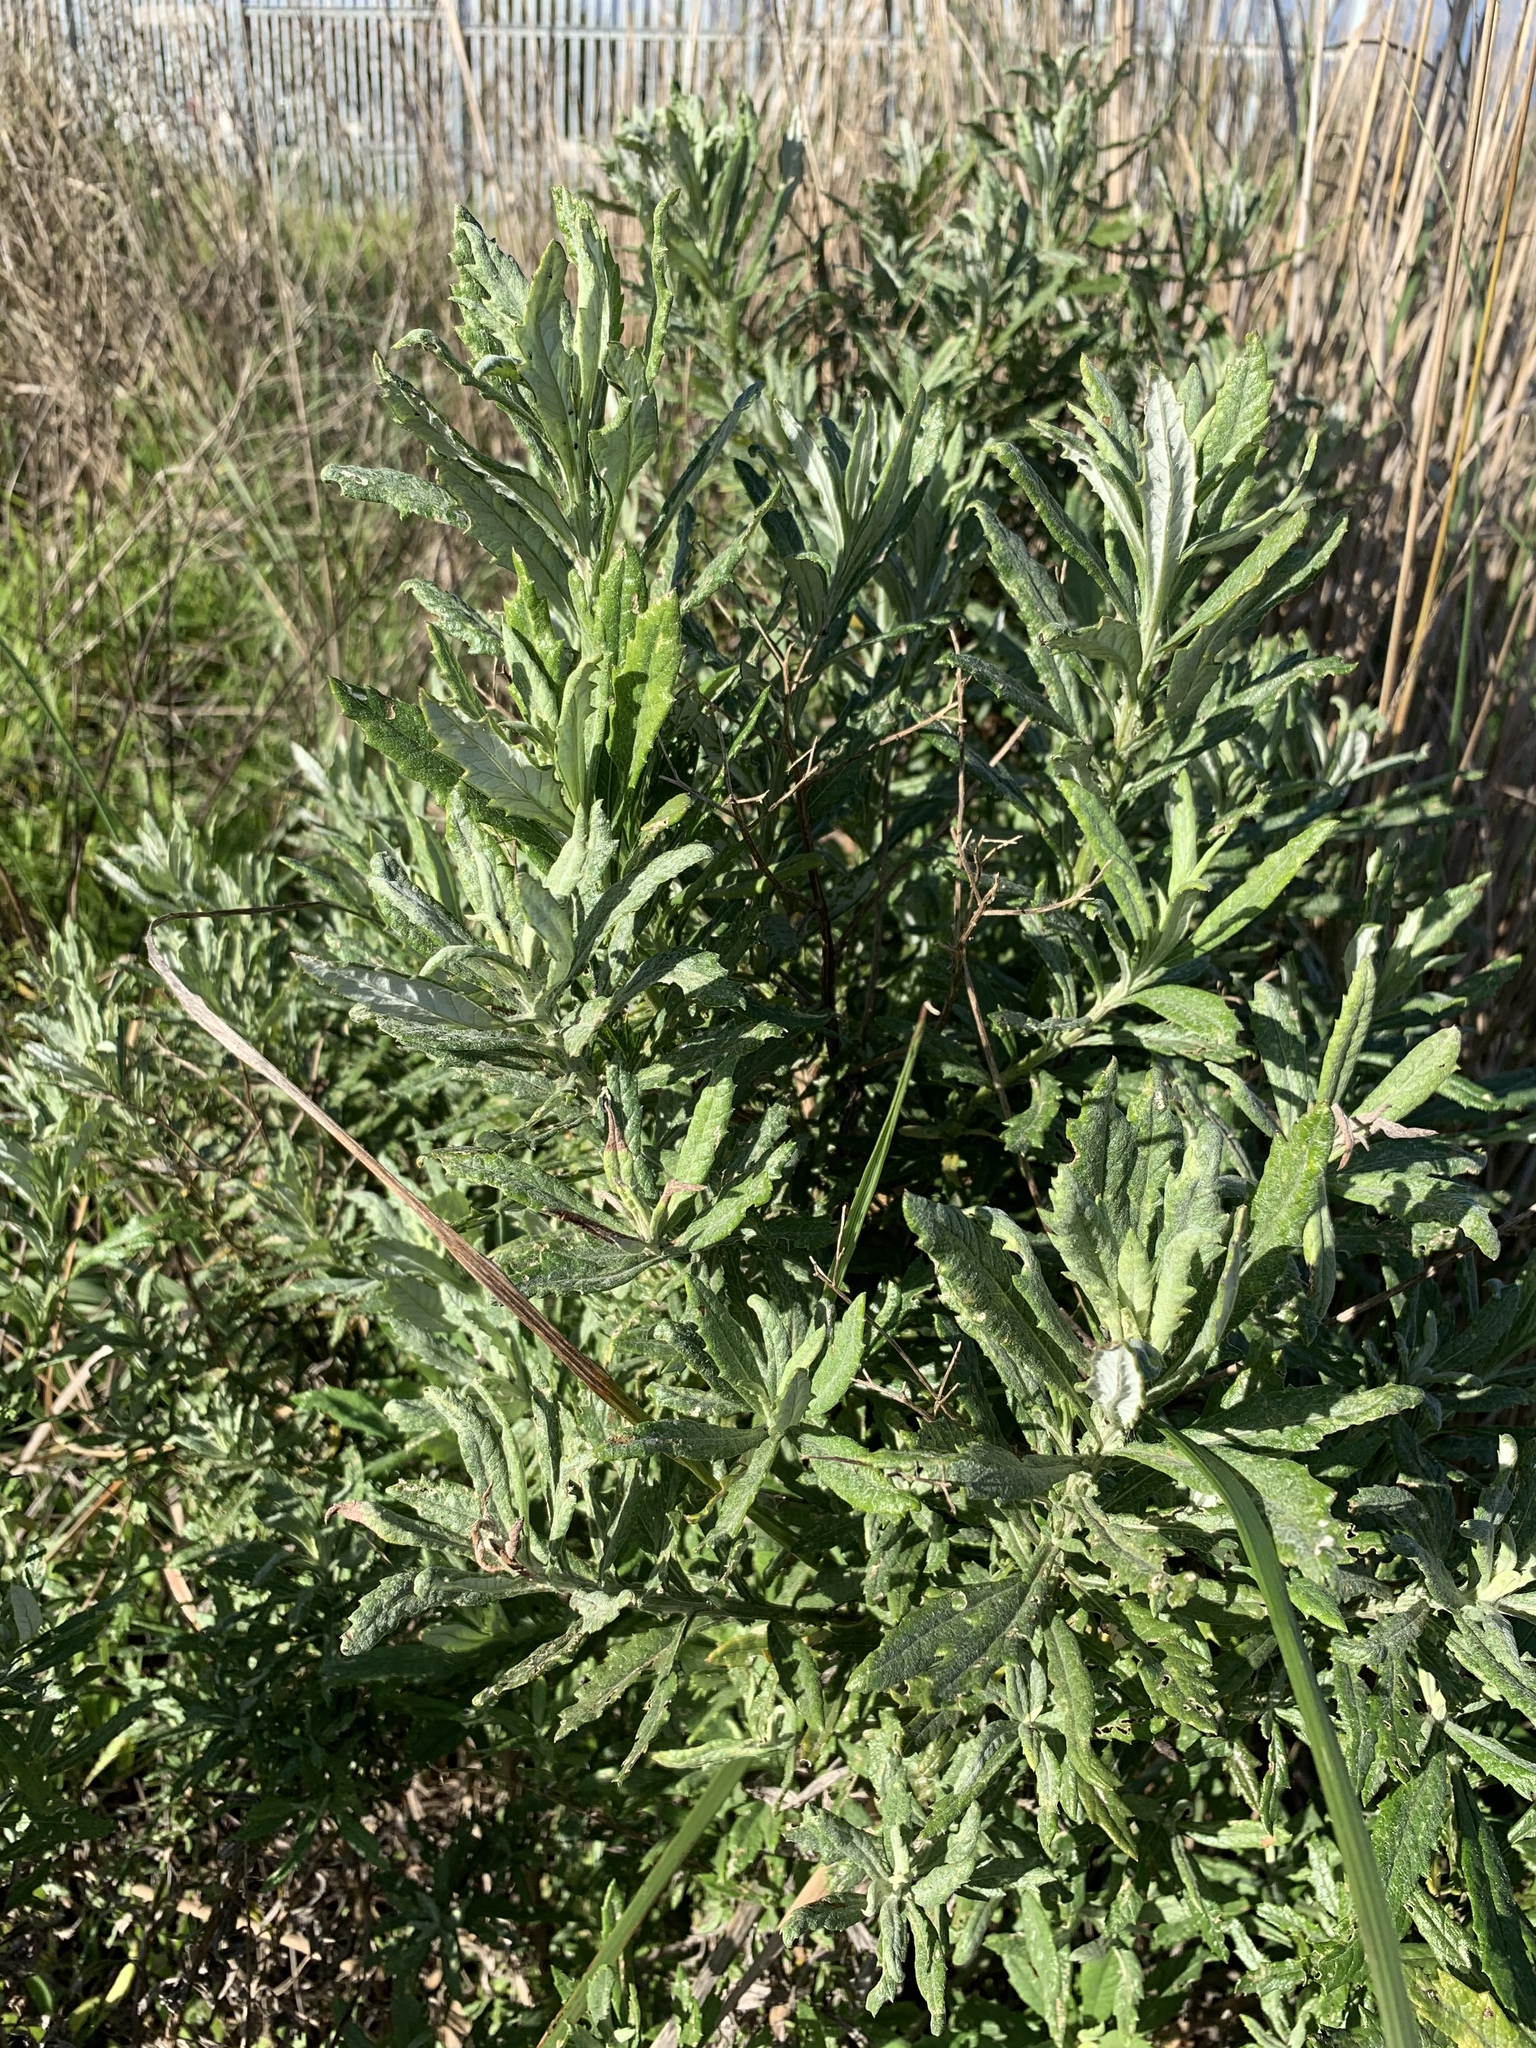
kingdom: Plantae
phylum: Tracheophyta
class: Magnoliopsida
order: Asterales
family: Asteraceae
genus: Senecio
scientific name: Senecio pterophorus
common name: Shoddy ragwort
